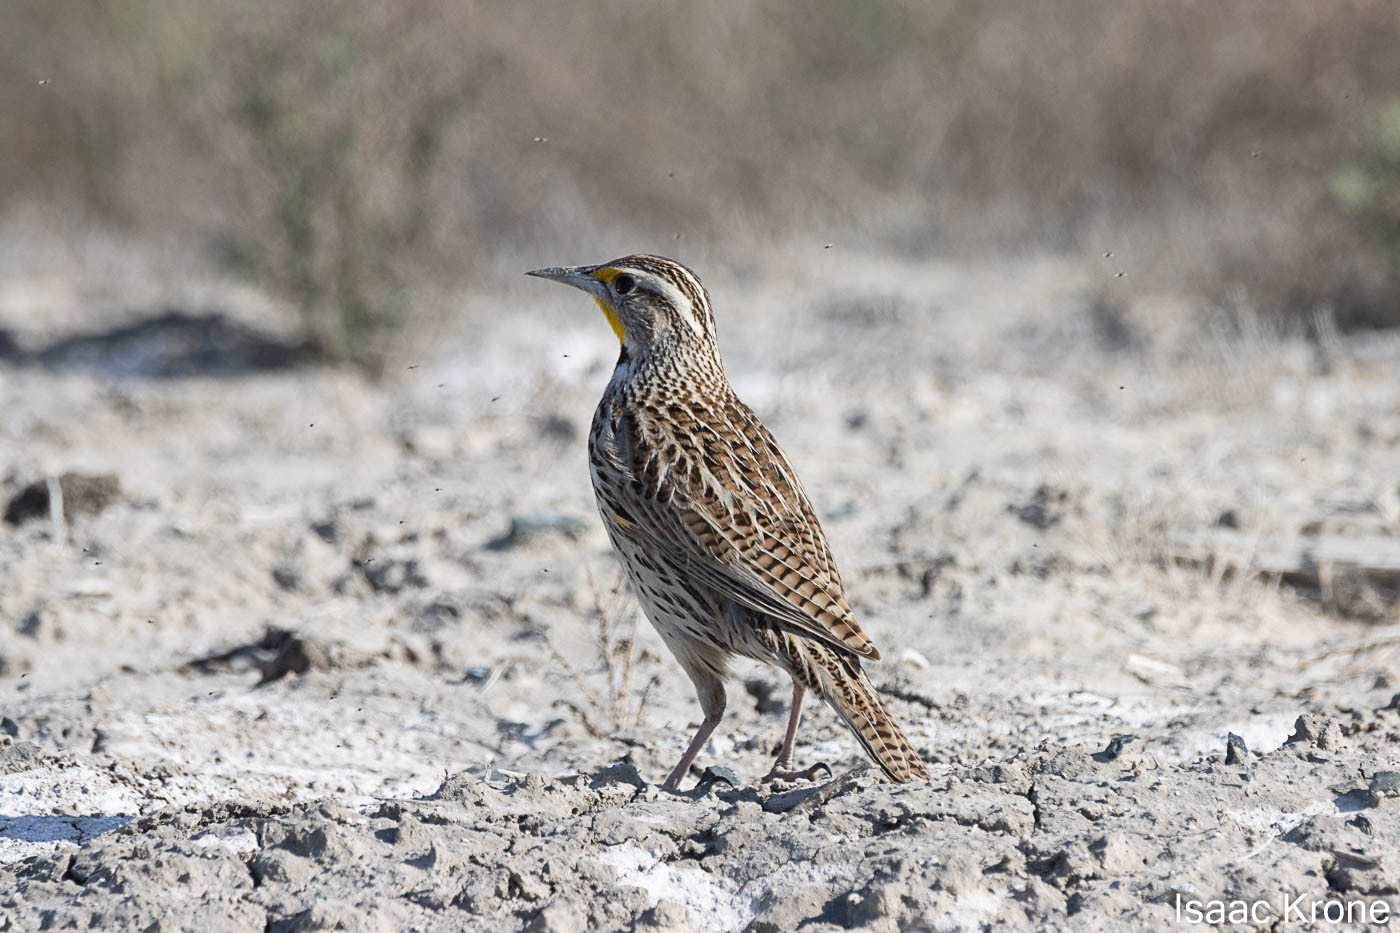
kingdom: Animalia
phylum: Chordata
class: Aves
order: Passeriformes
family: Icteridae
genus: Sturnella
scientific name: Sturnella neglecta
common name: Western meadowlark
